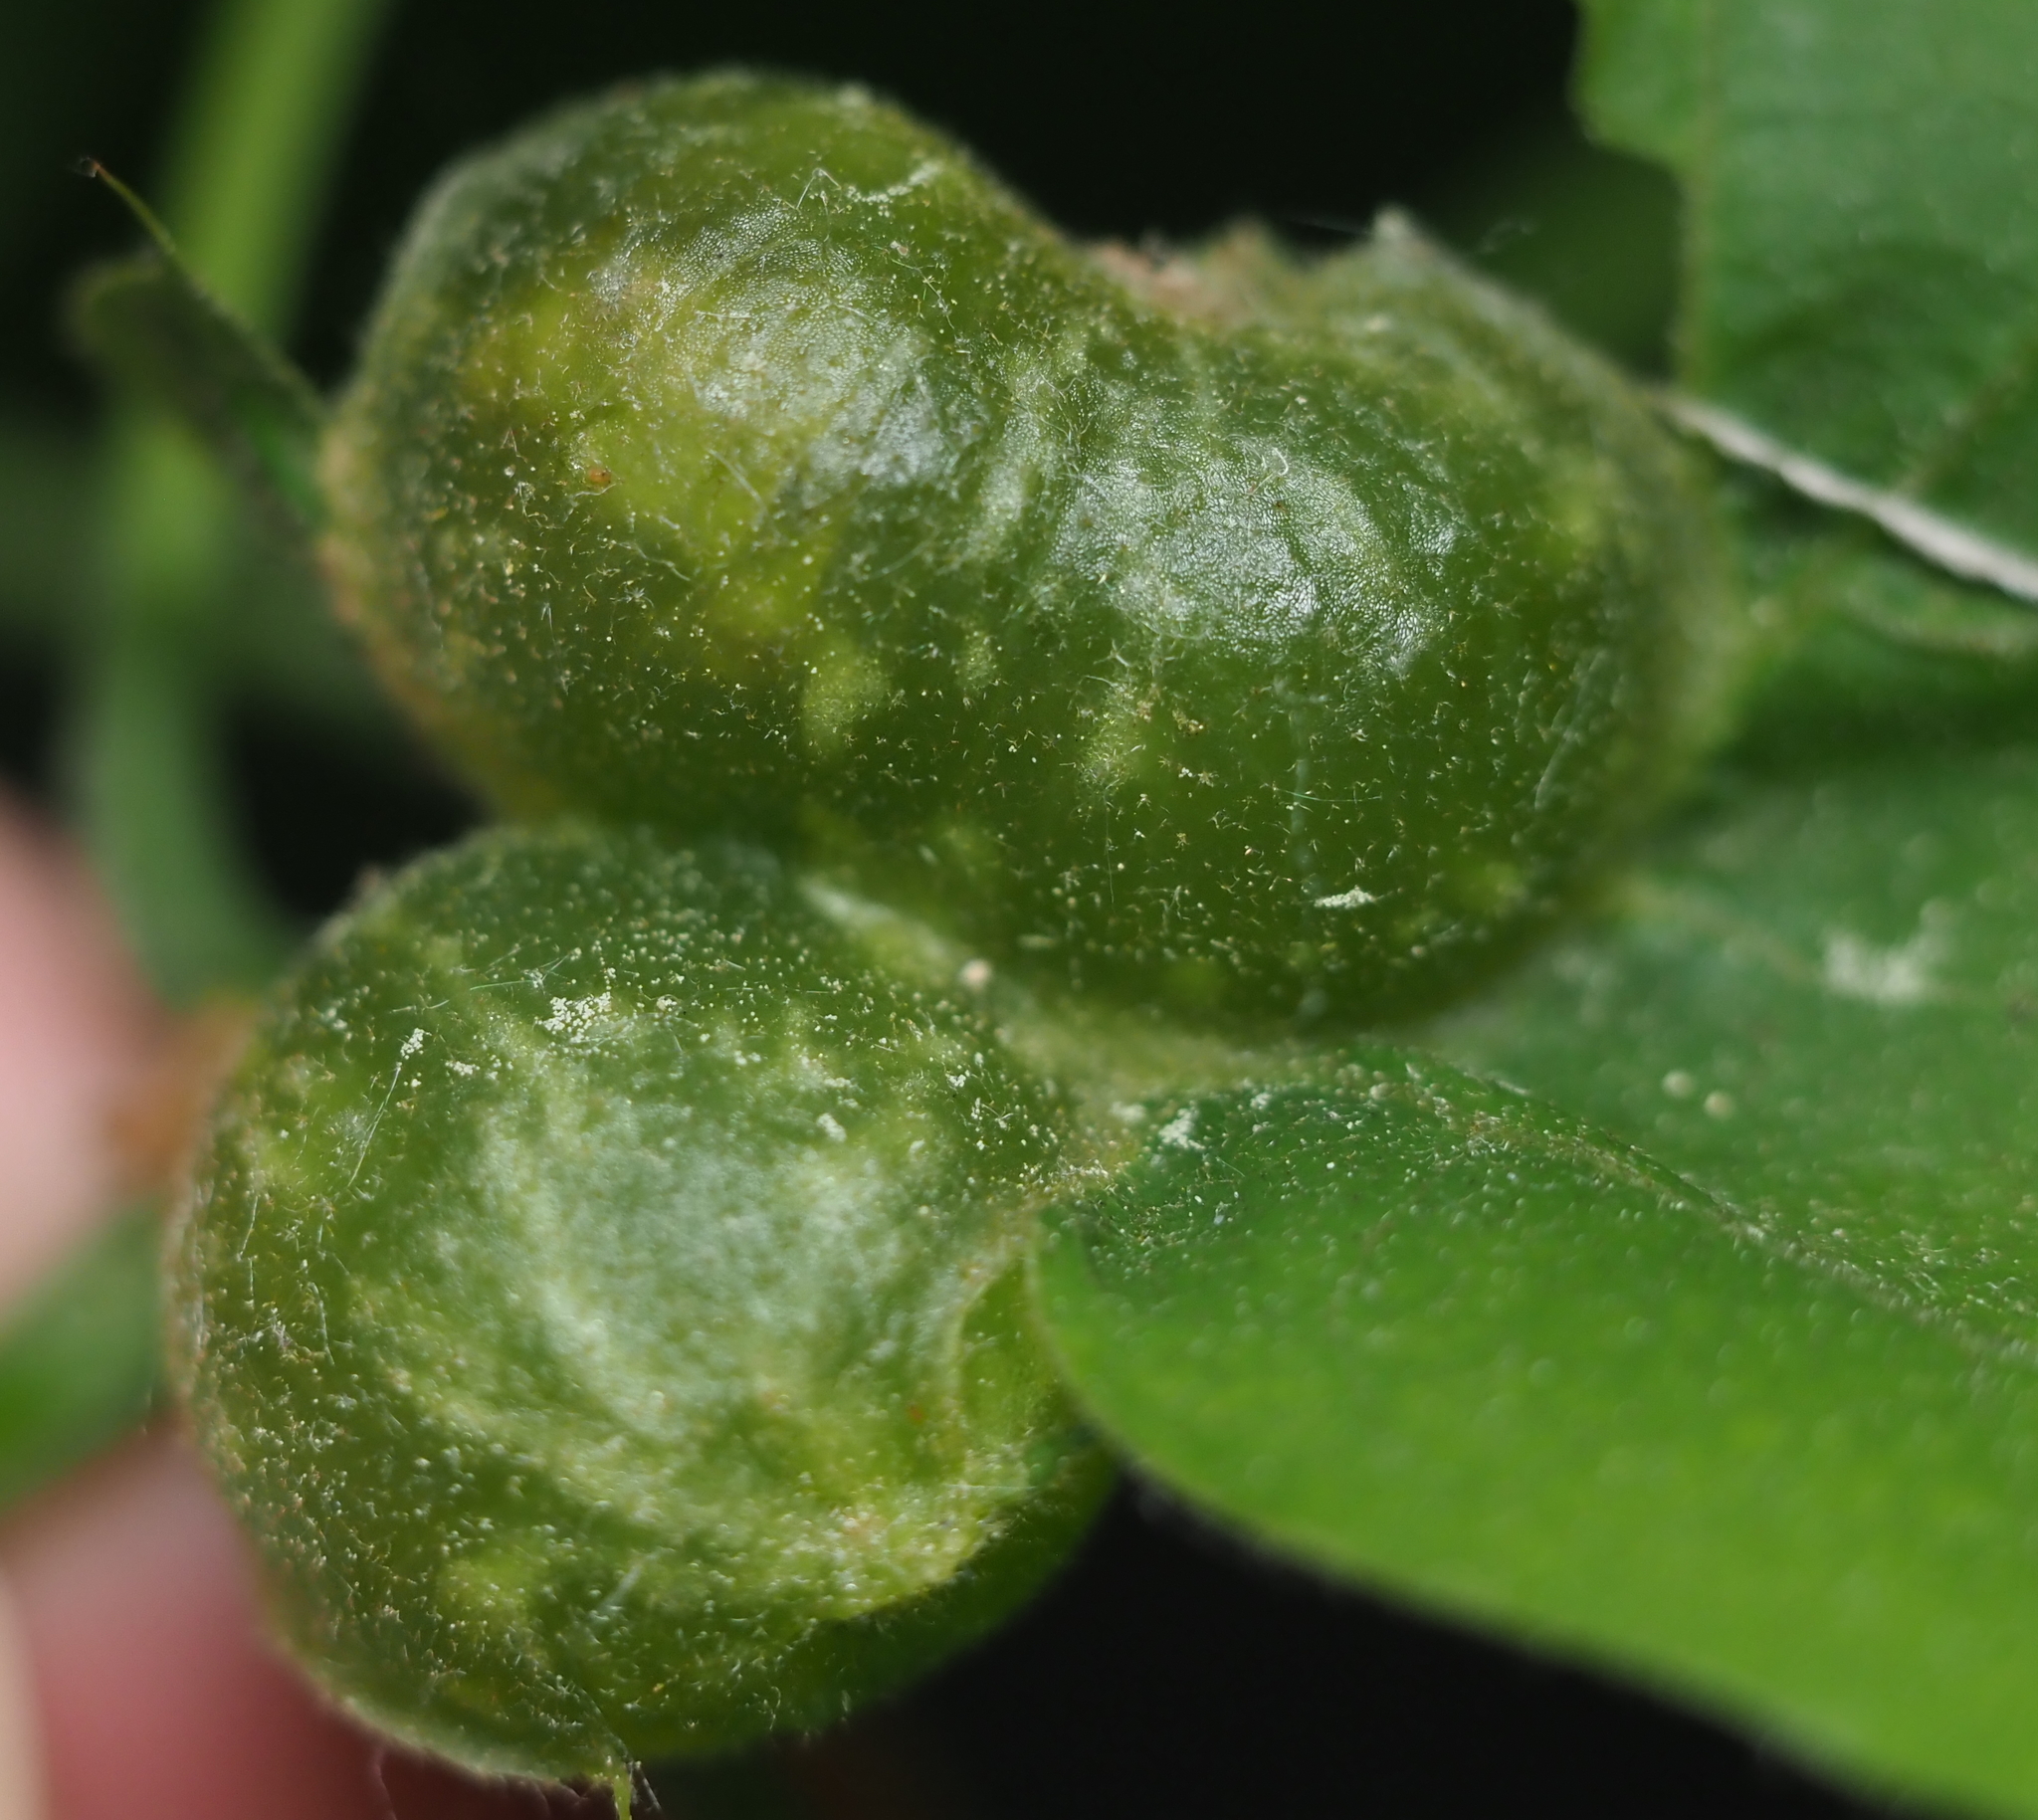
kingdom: Animalia
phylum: Arthropoda
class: Insecta
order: Hymenoptera
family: Cynipidae
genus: Dryocosmus
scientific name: Dryocosmus quercuspalustris
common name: Succulent oak gall wasp
